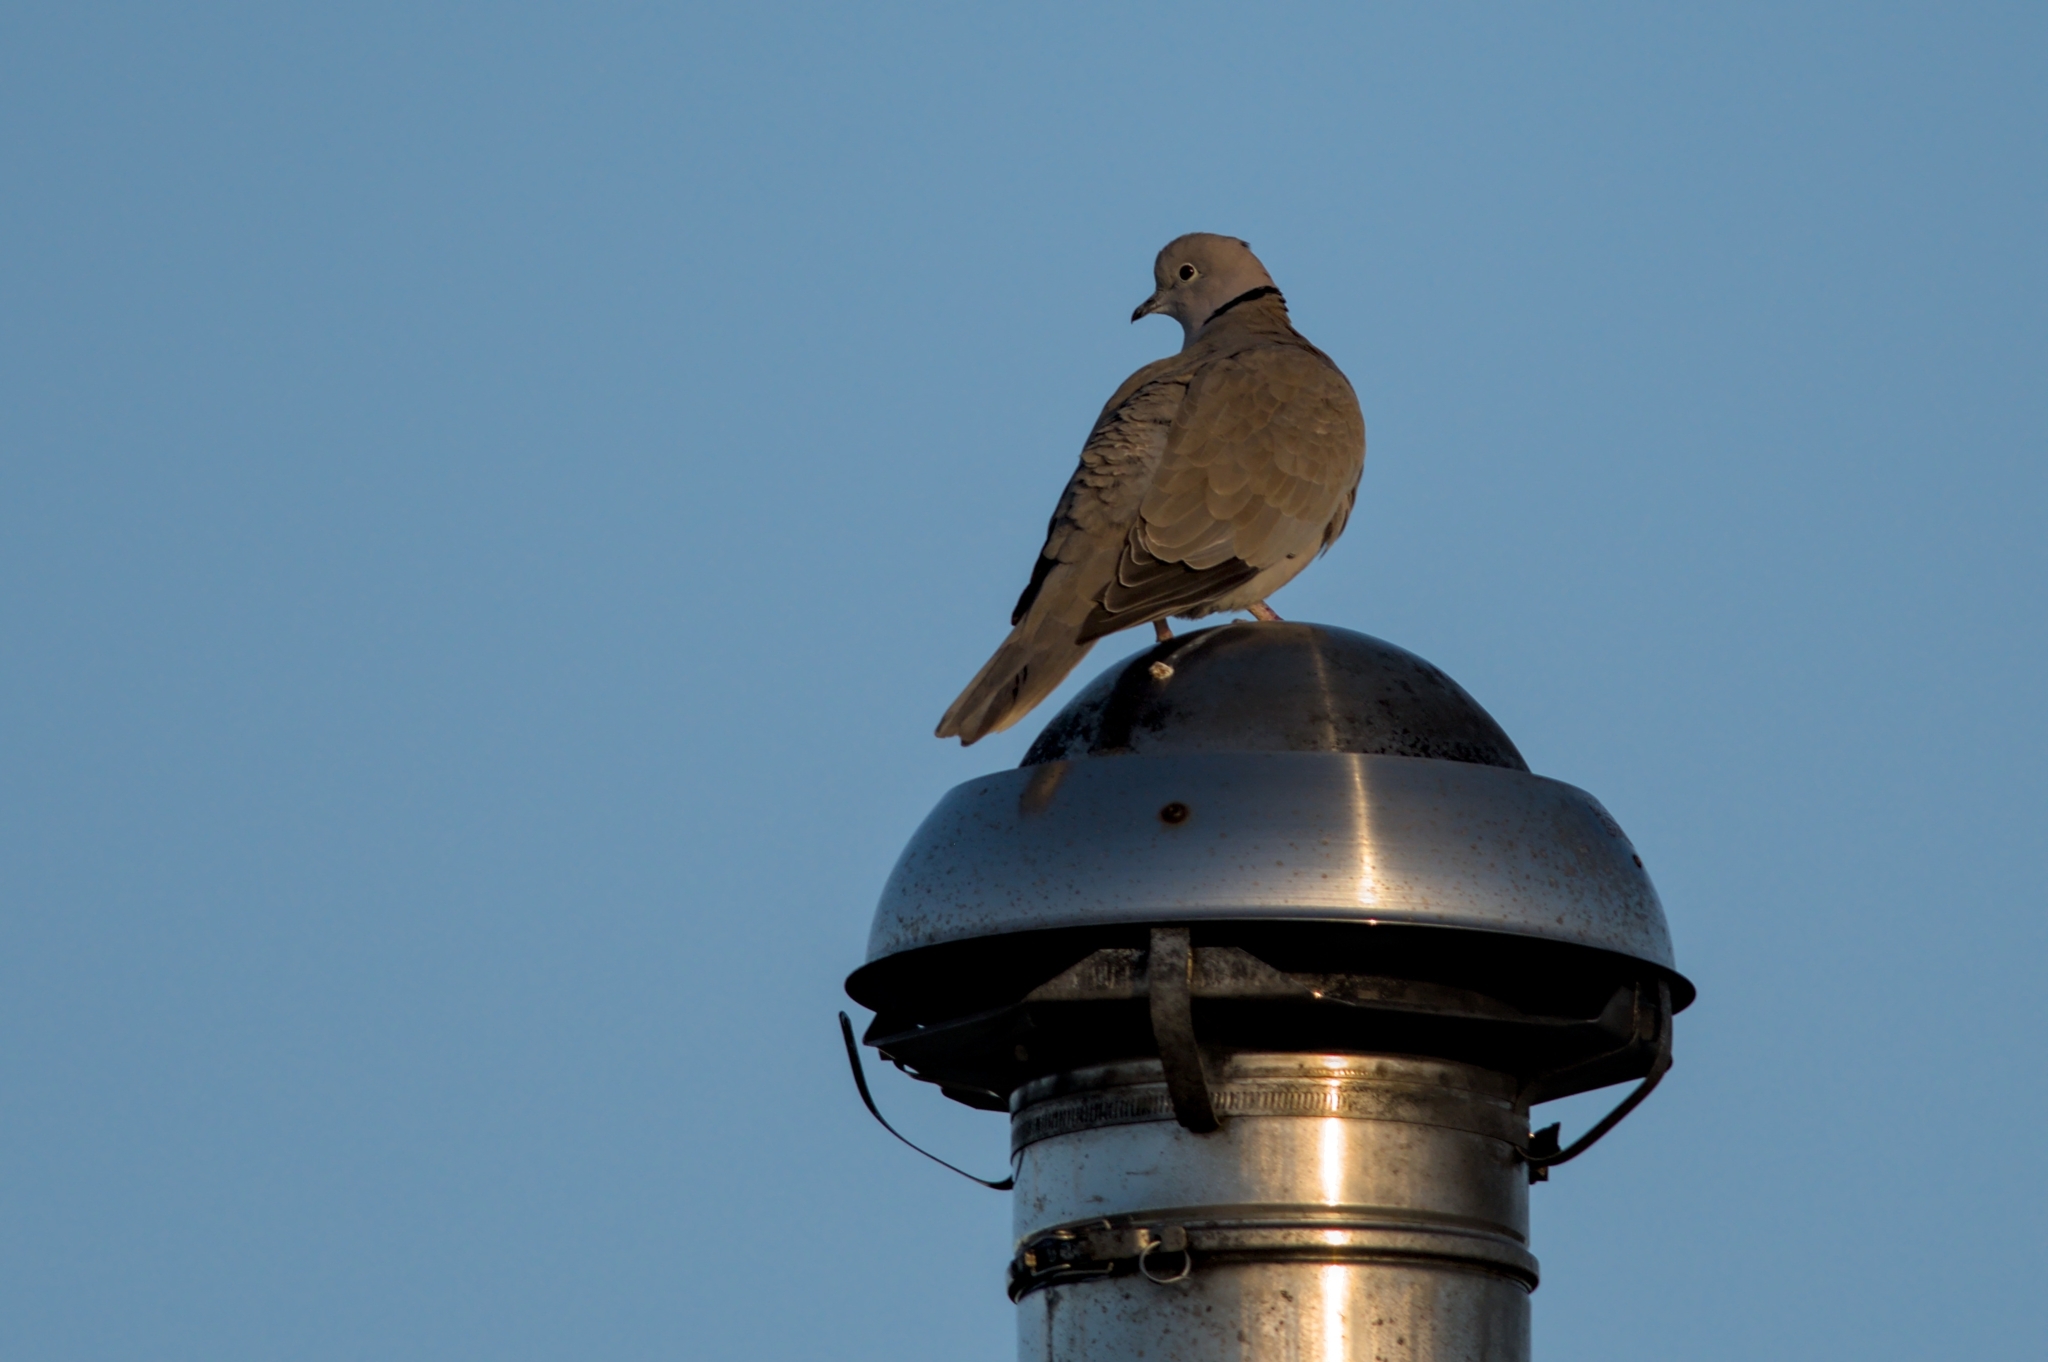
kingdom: Animalia
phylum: Chordata
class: Aves
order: Columbiformes
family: Columbidae
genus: Streptopelia
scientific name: Streptopelia decaocto
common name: Eurasian collared dove
